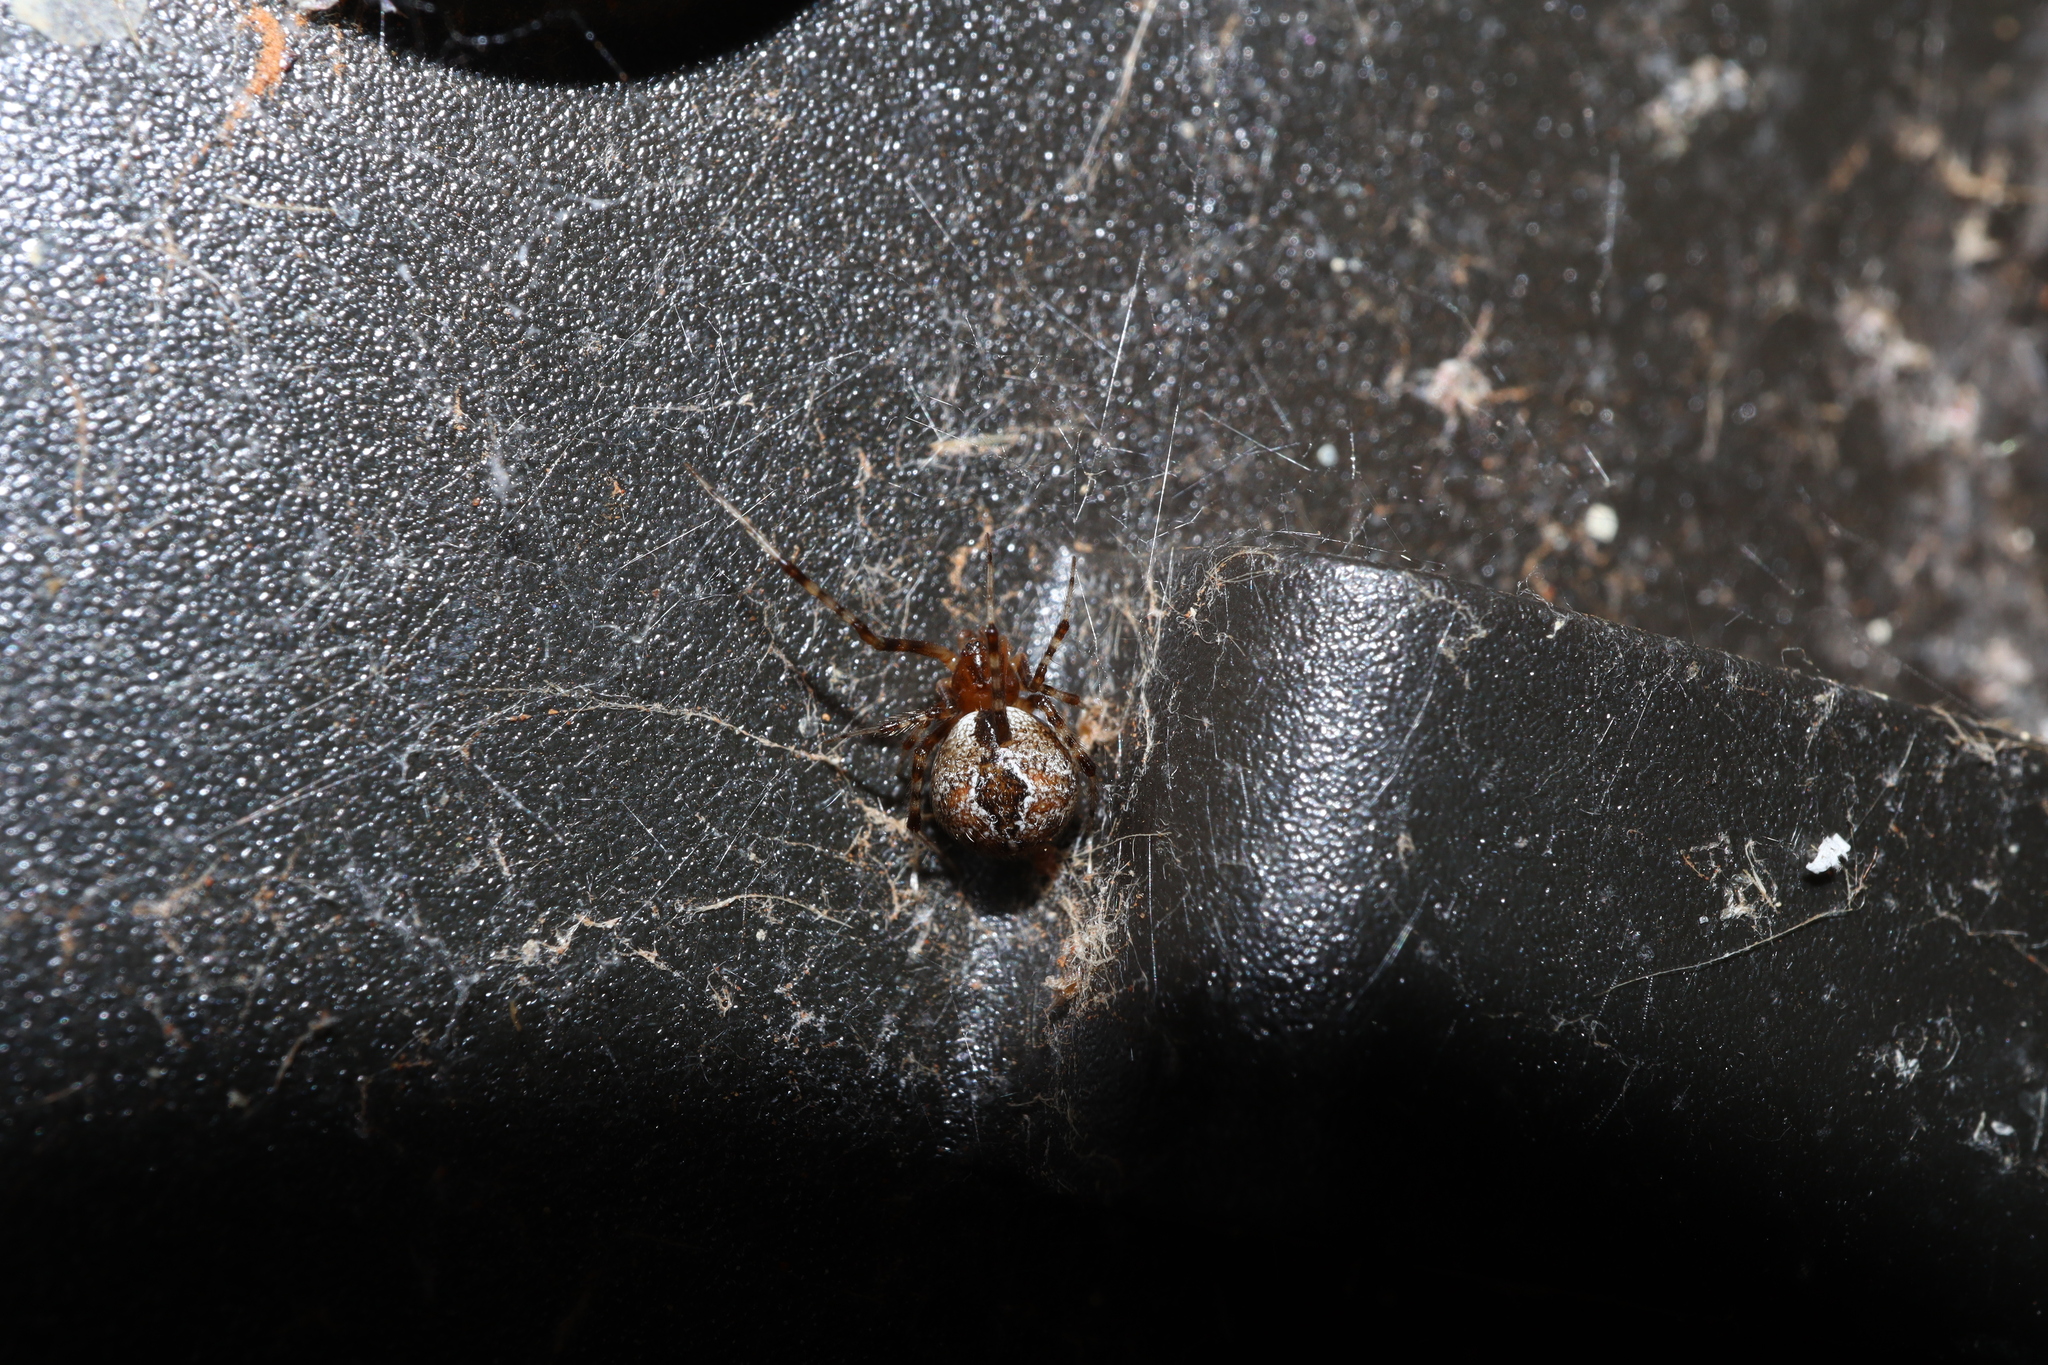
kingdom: Animalia
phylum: Arthropoda
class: Arachnida
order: Araneae
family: Theridiidae
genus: Cryptachaea
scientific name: Cryptachaea veruculata
